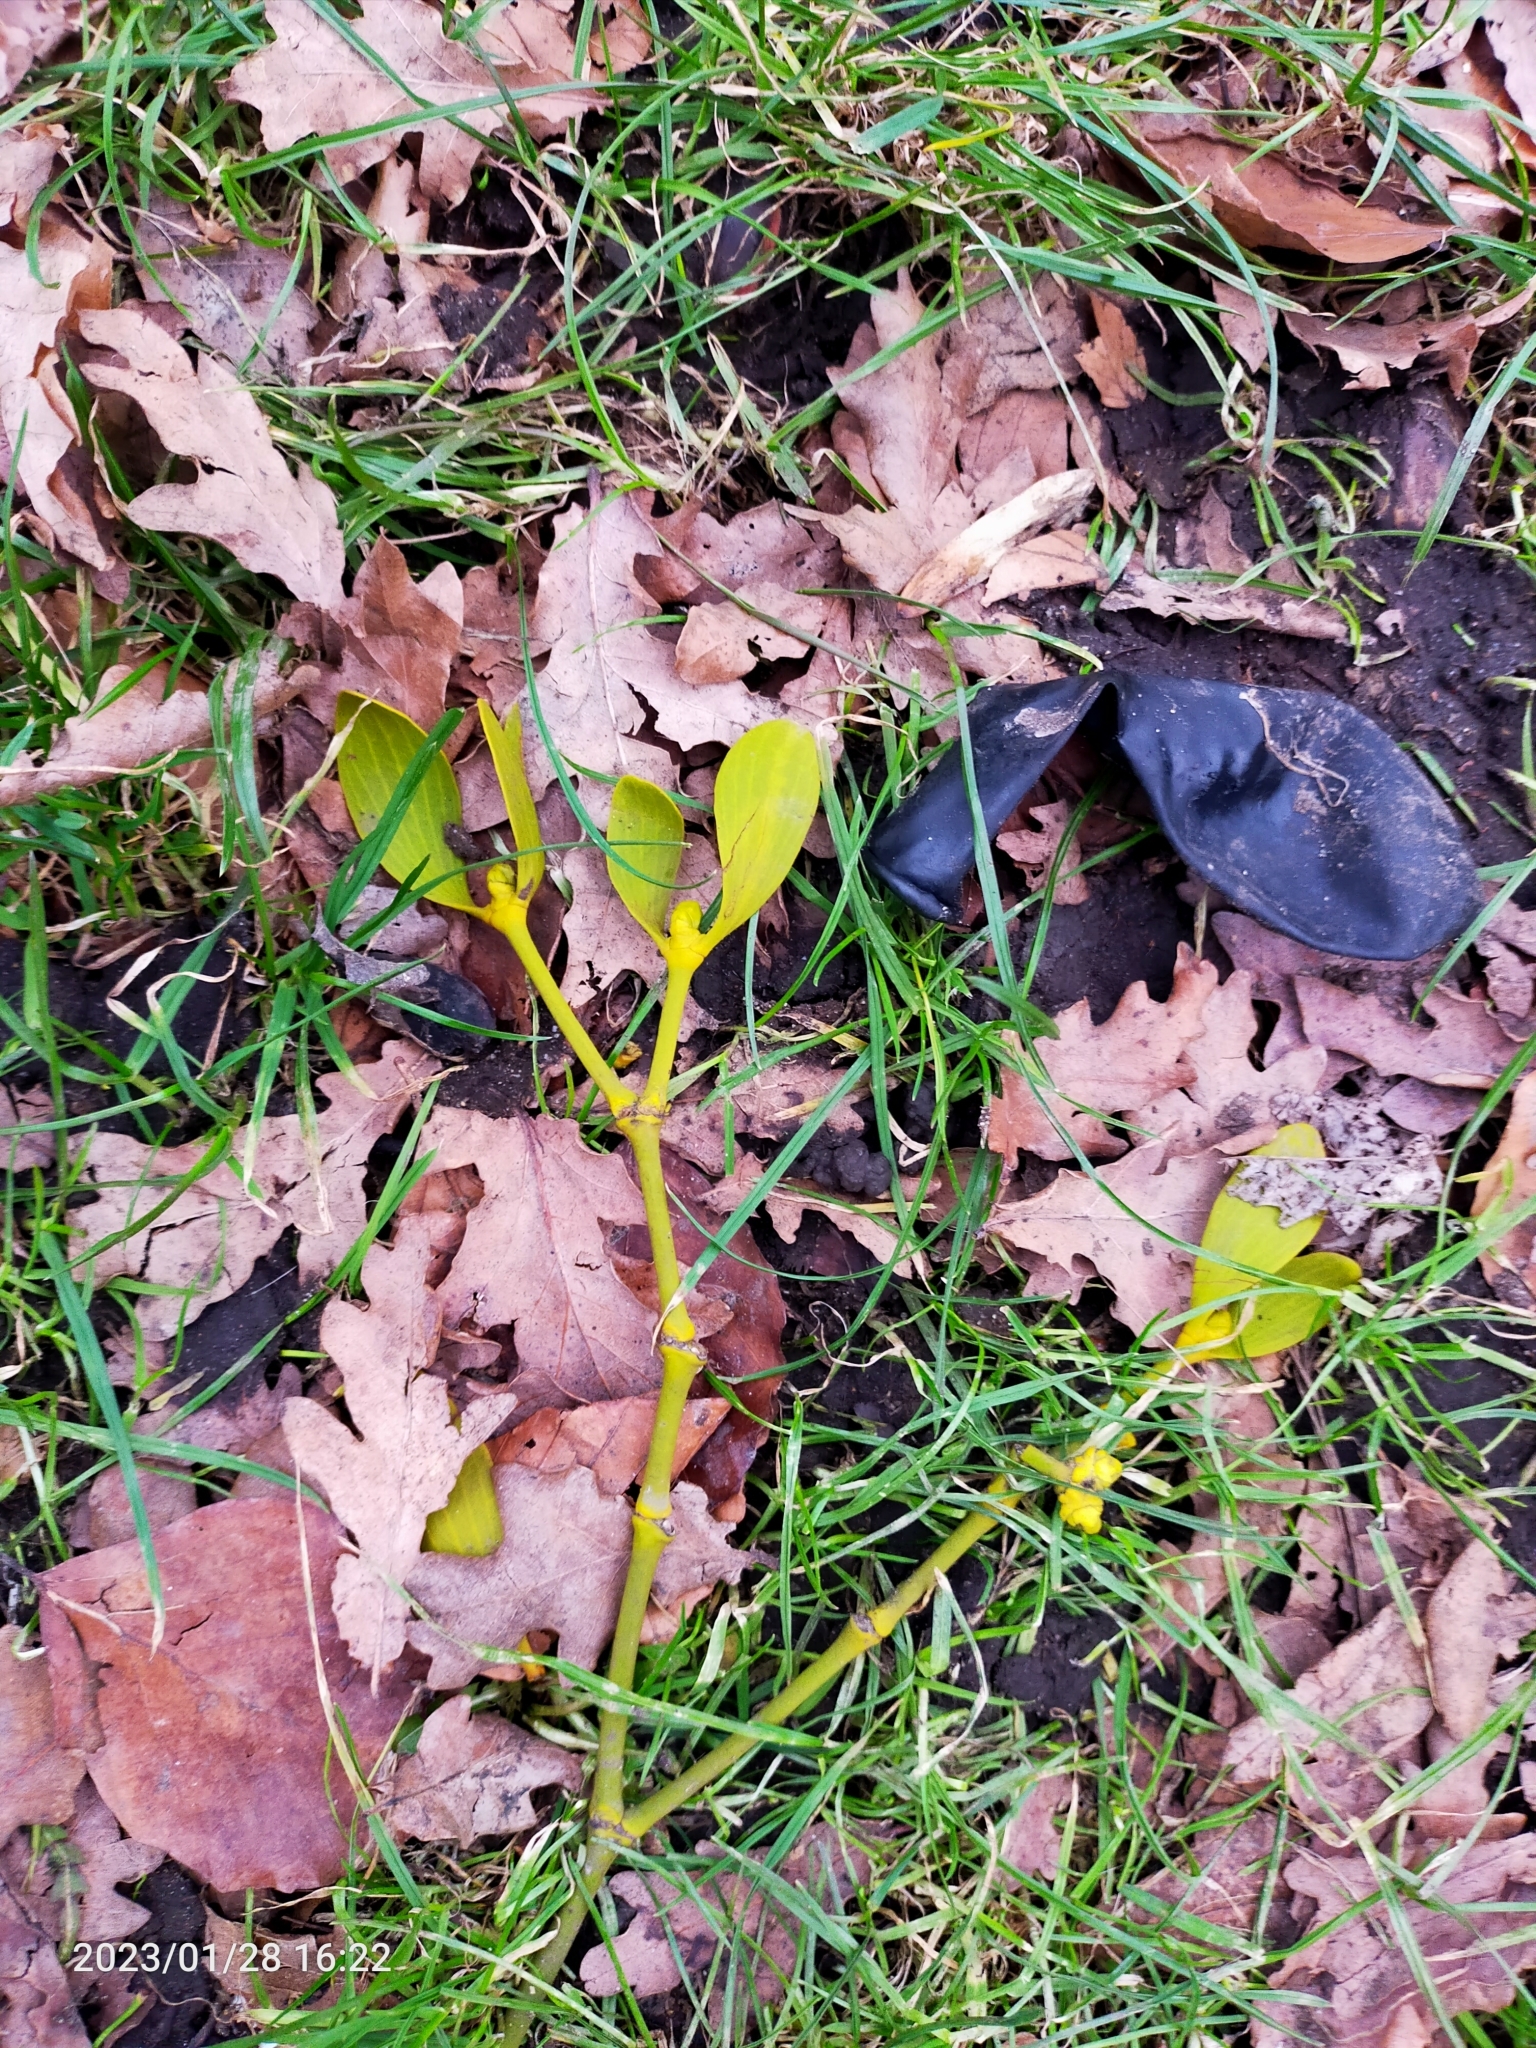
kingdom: Plantae
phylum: Tracheophyta
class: Magnoliopsida
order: Santalales
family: Viscaceae
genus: Viscum
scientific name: Viscum album
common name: Mistletoe
